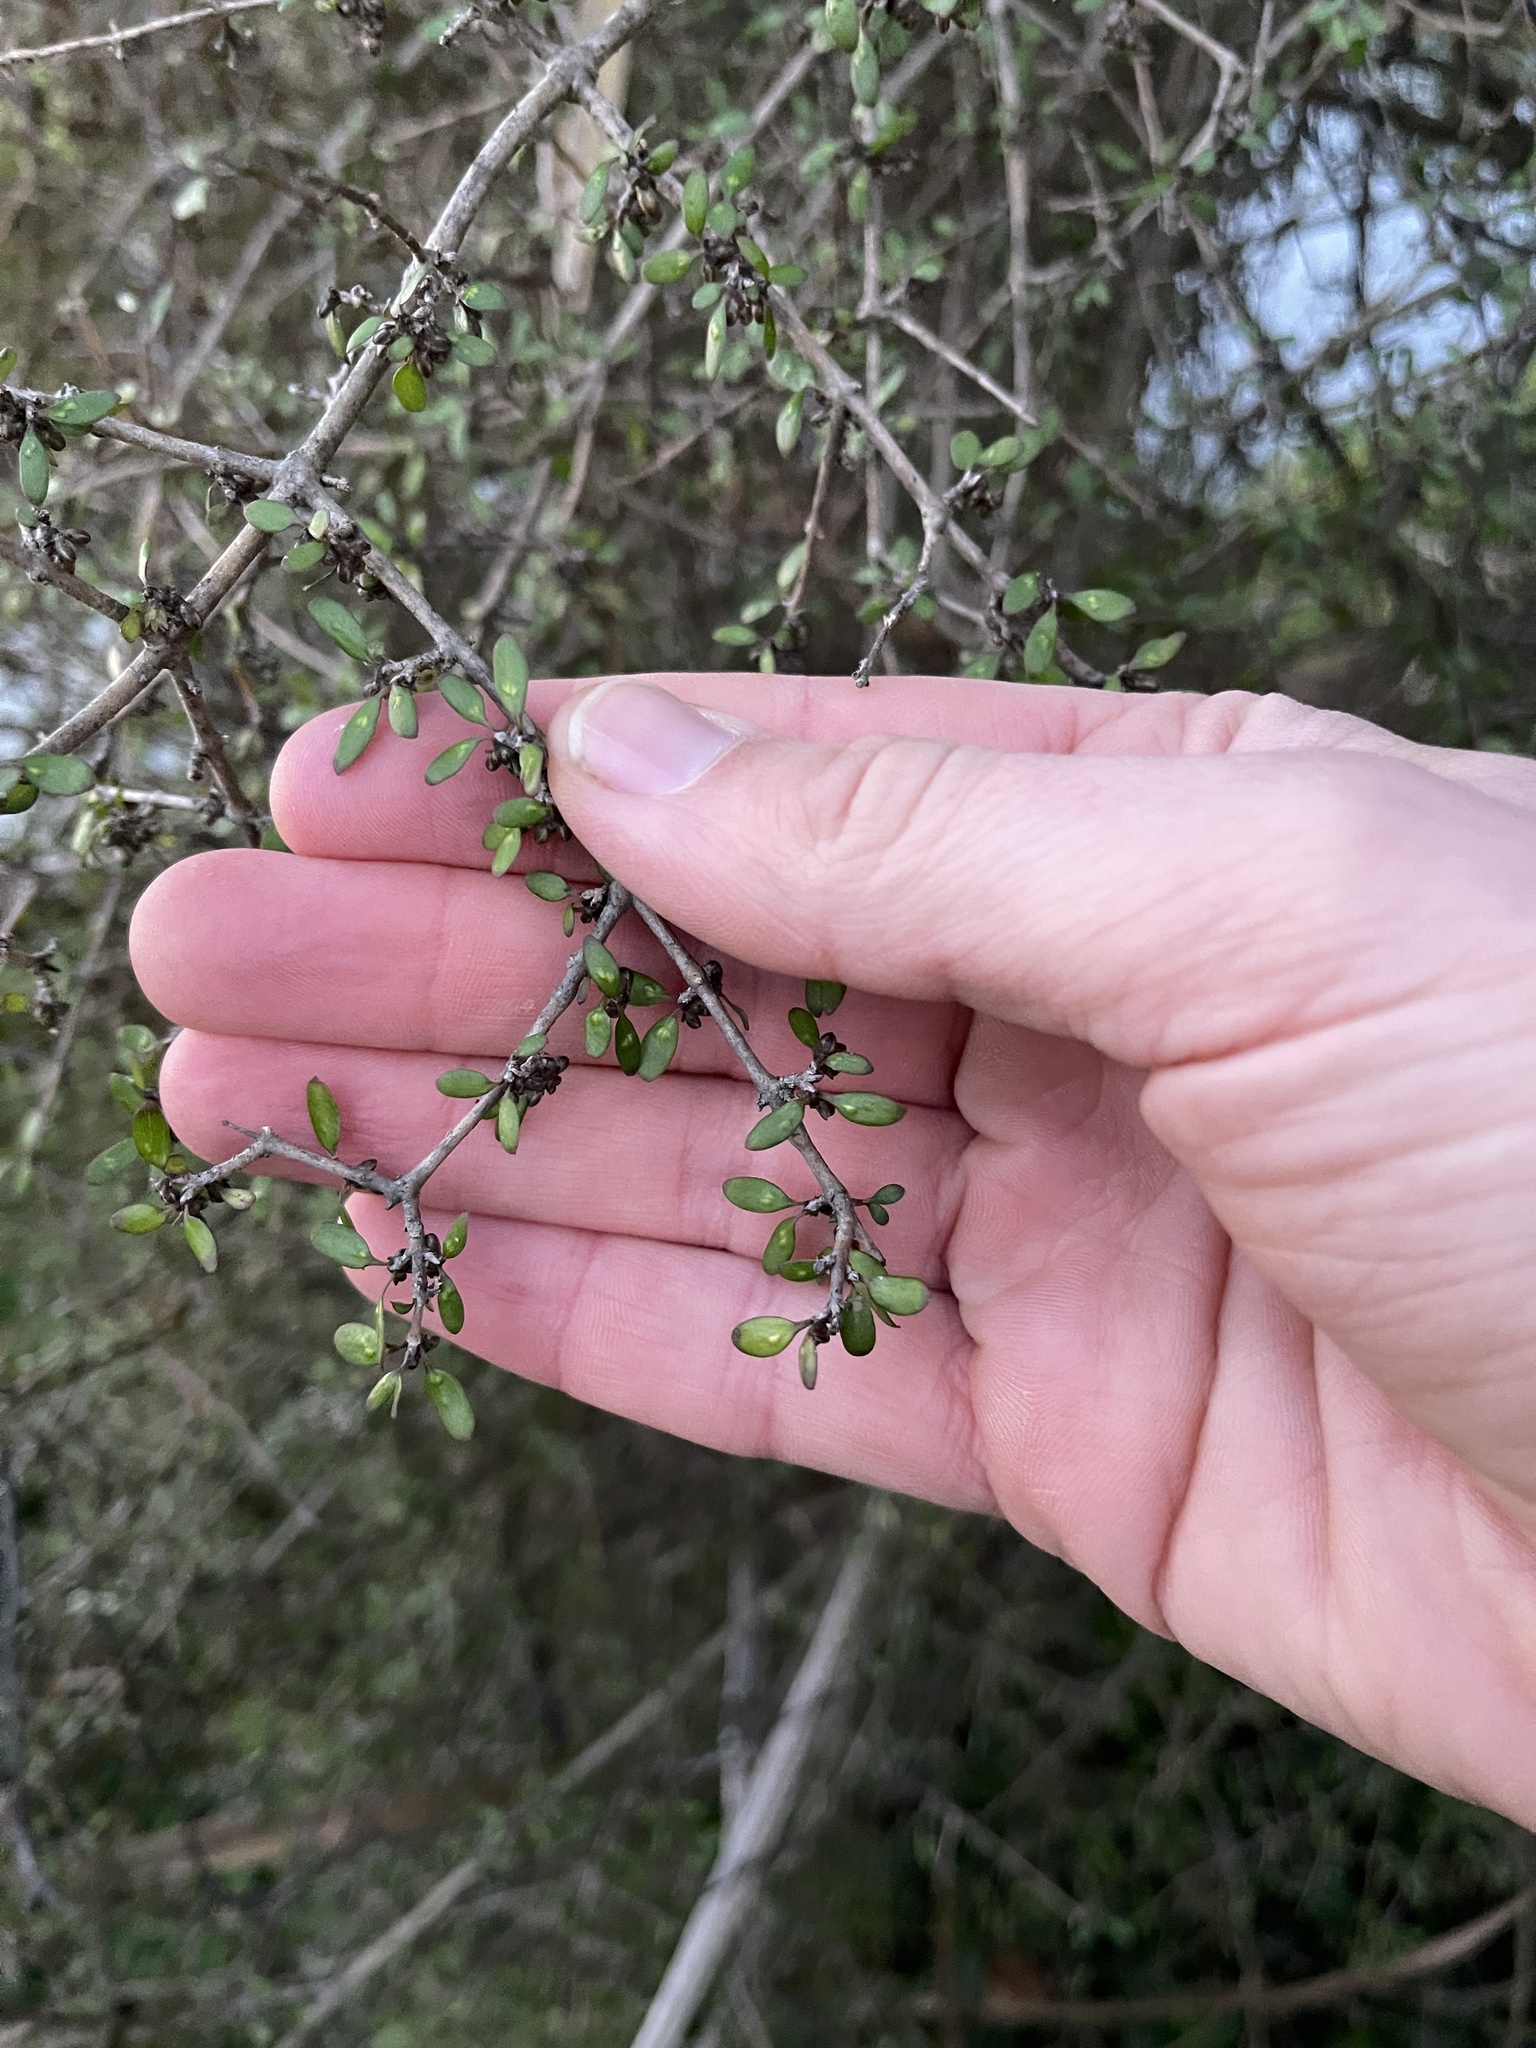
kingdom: Plantae
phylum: Tracheophyta
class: Magnoliopsida
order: Gentianales
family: Rubiaceae
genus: Coprosma
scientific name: Coprosma propinqua
